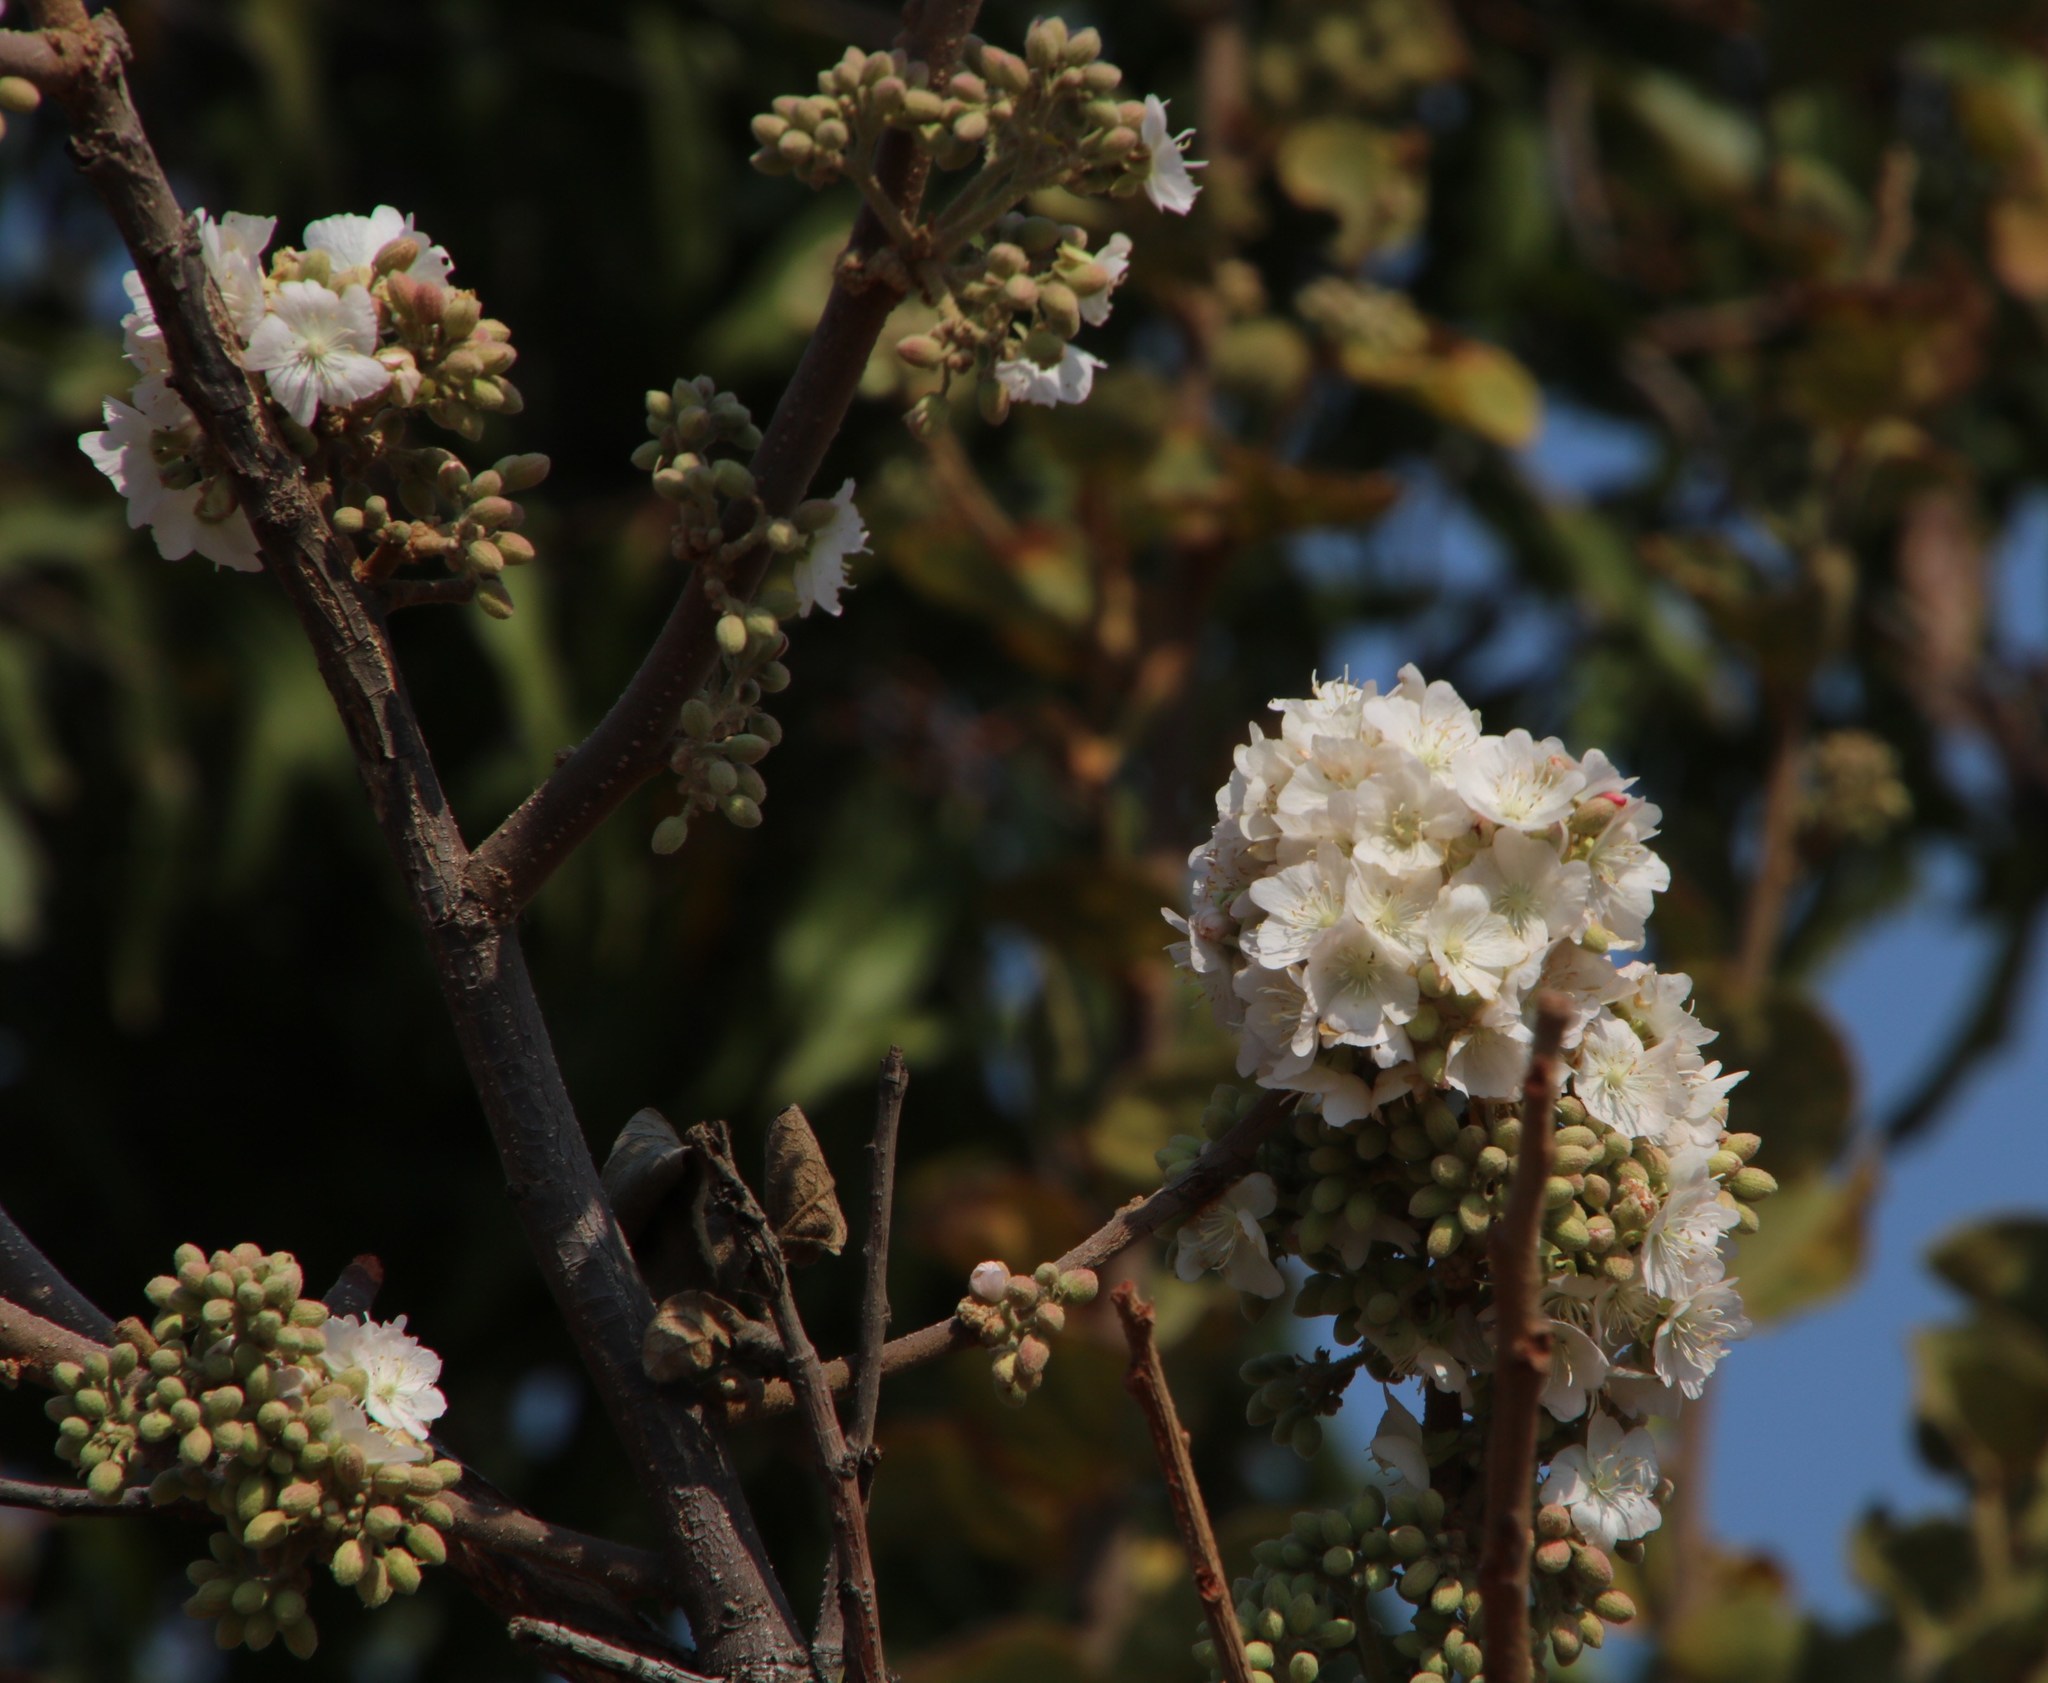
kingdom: Plantae
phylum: Tracheophyta
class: Magnoliopsida
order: Malvales
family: Malvaceae
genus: Dombeya
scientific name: Dombeya rotundifolia
